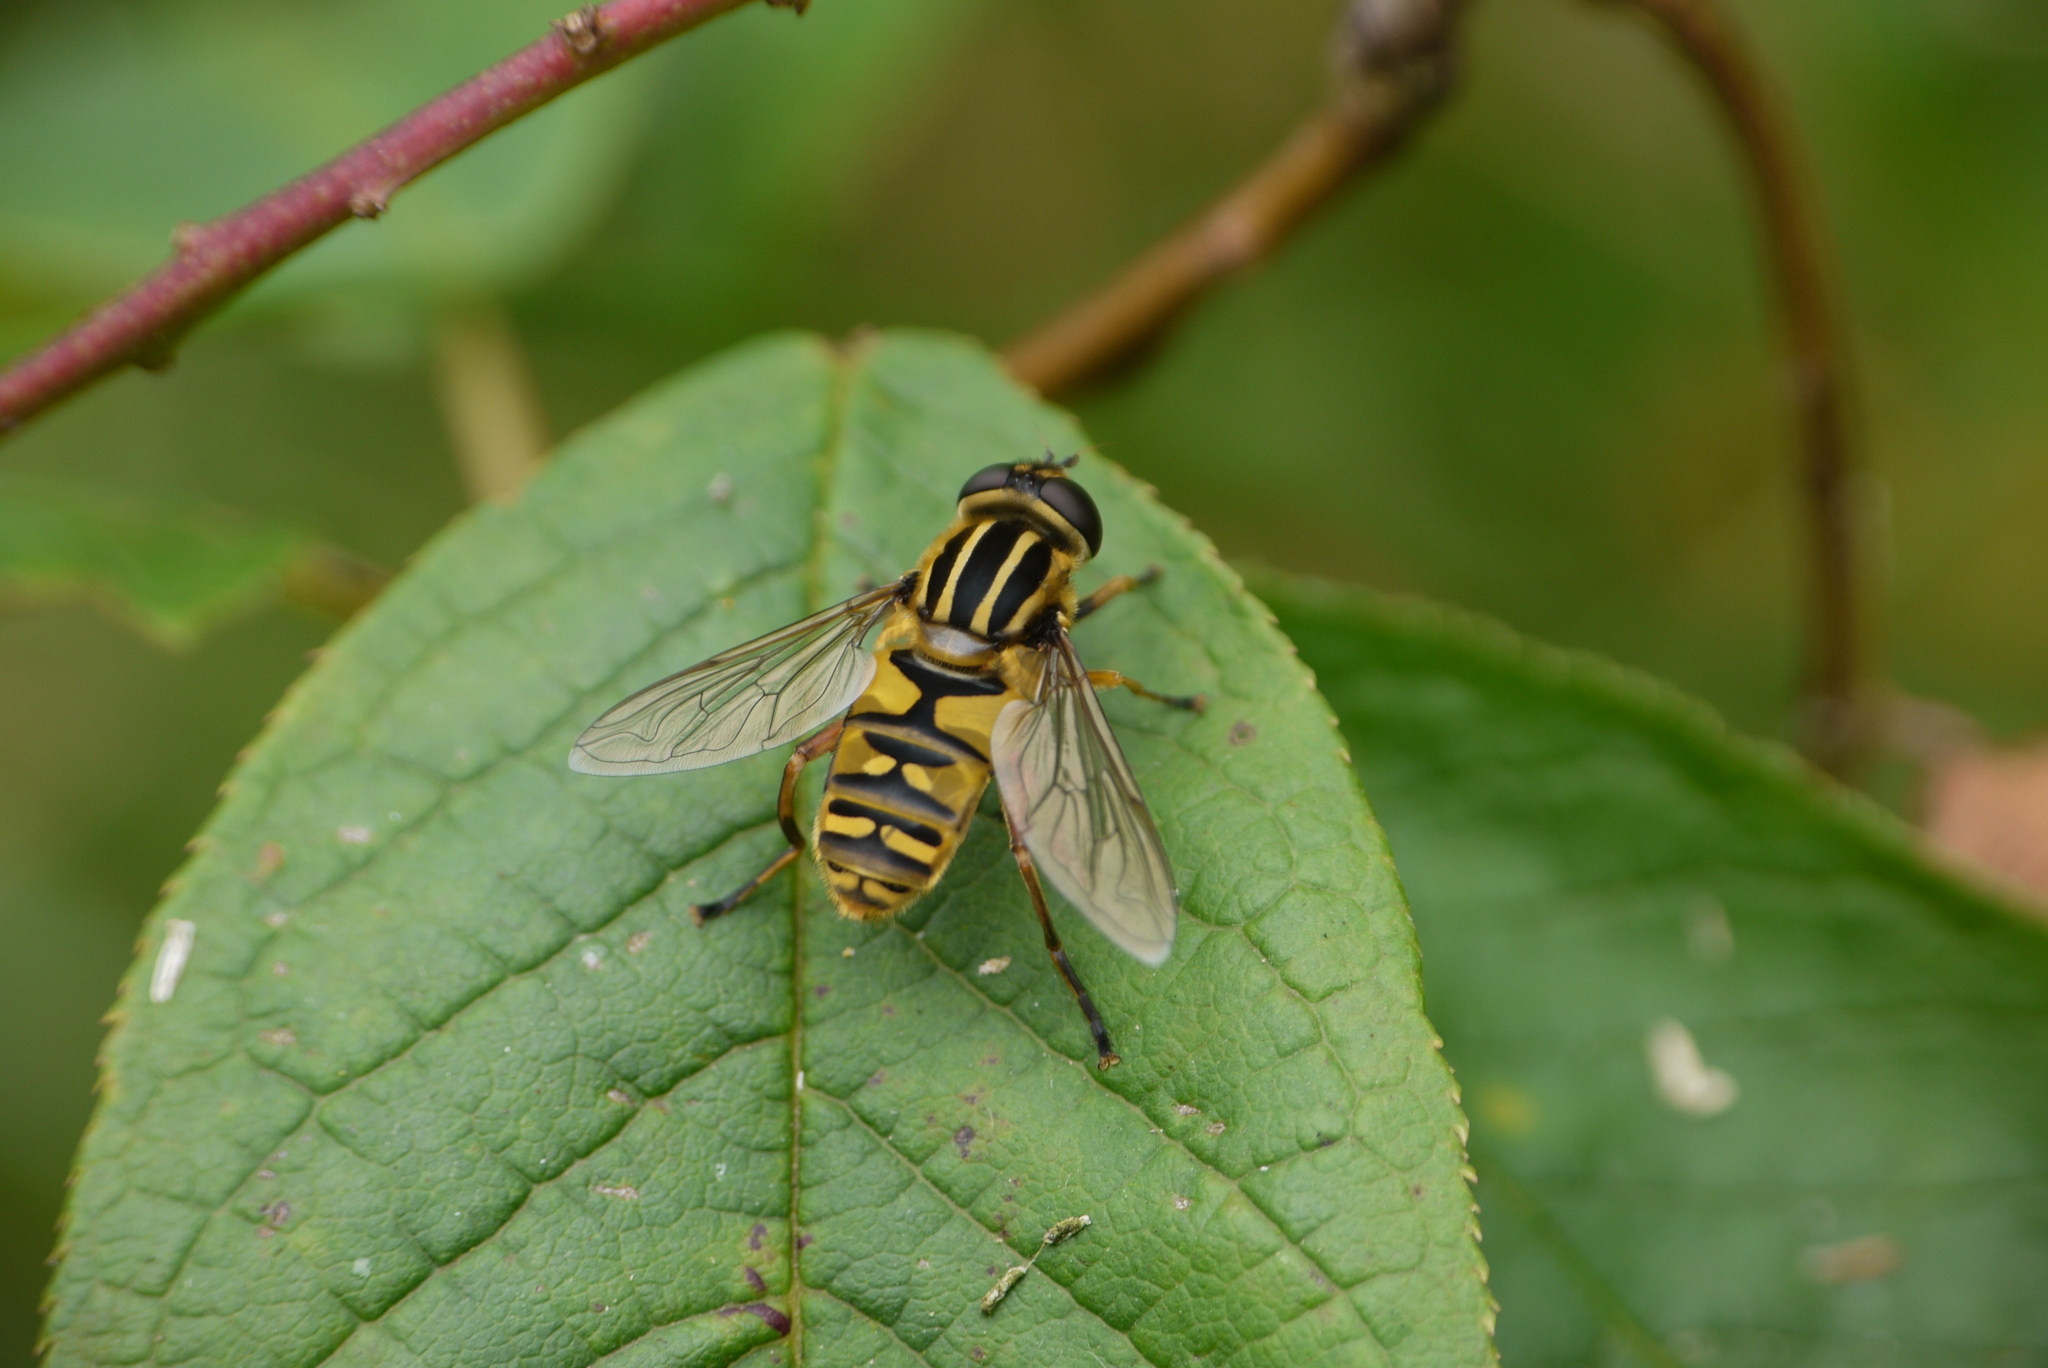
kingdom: Animalia
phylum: Arthropoda
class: Insecta
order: Diptera
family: Syrphidae
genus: Helophilus
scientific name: Helophilus pendulus
